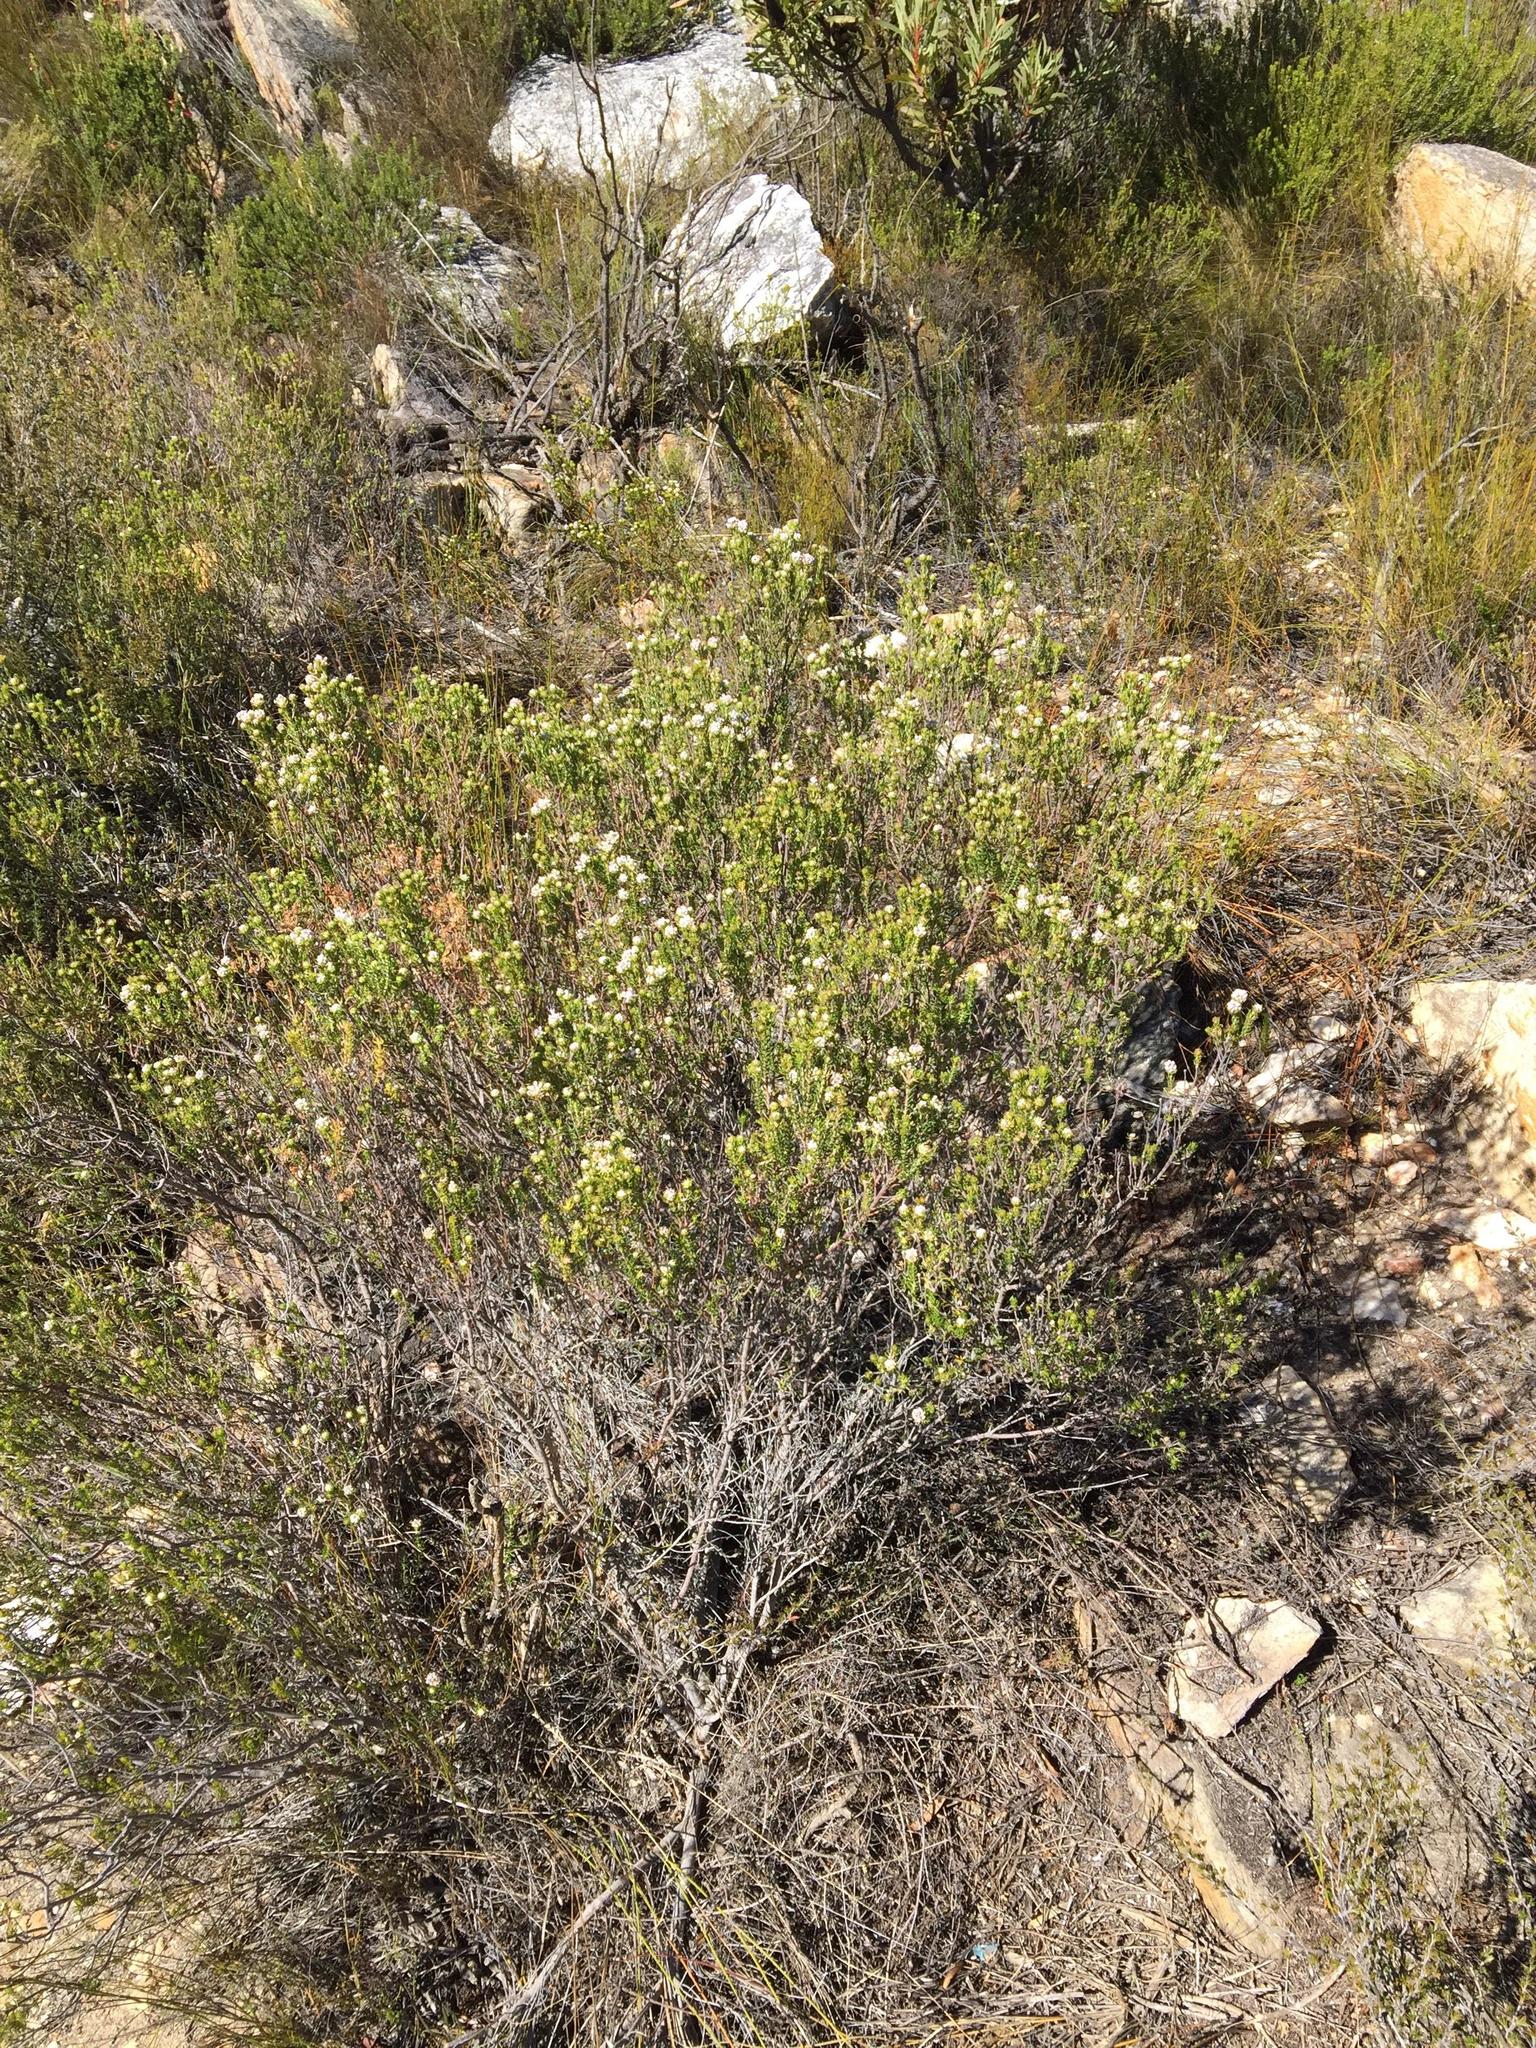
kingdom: Plantae
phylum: Tracheophyta
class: Magnoliopsida
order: Rosales
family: Rhamnaceae
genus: Phylica
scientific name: Phylica lachneaeoides
